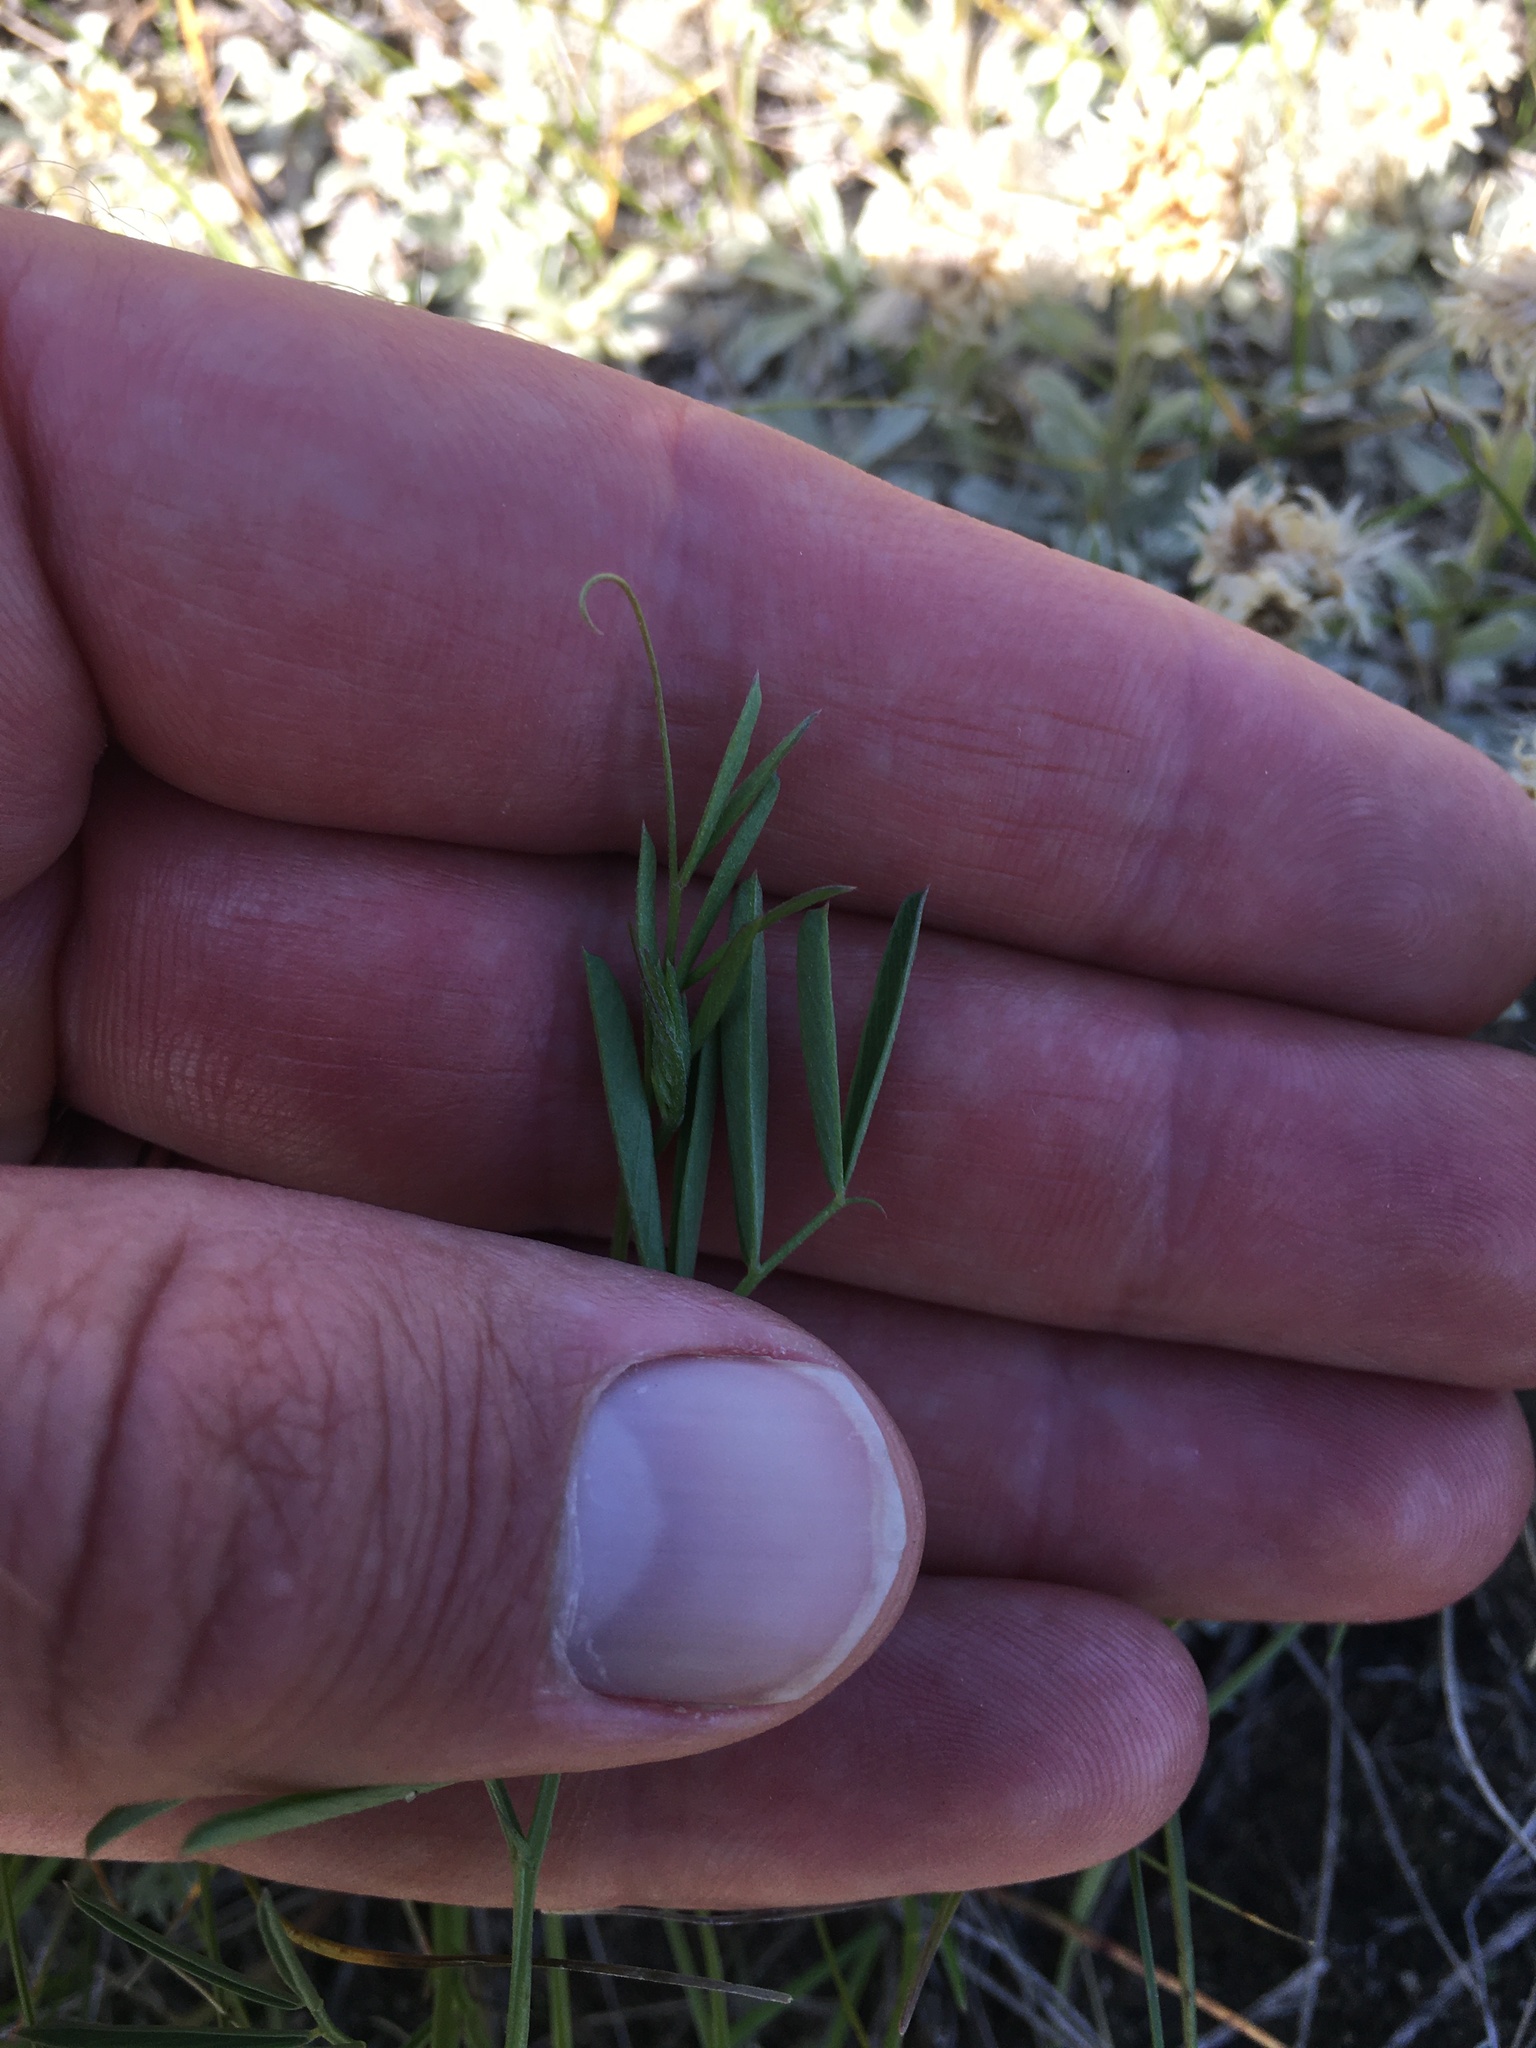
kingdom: Plantae
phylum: Tracheophyta
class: Magnoliopsida
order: Fabales
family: Fabaceae
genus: Vicia
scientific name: Vicia americana
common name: American vetch
